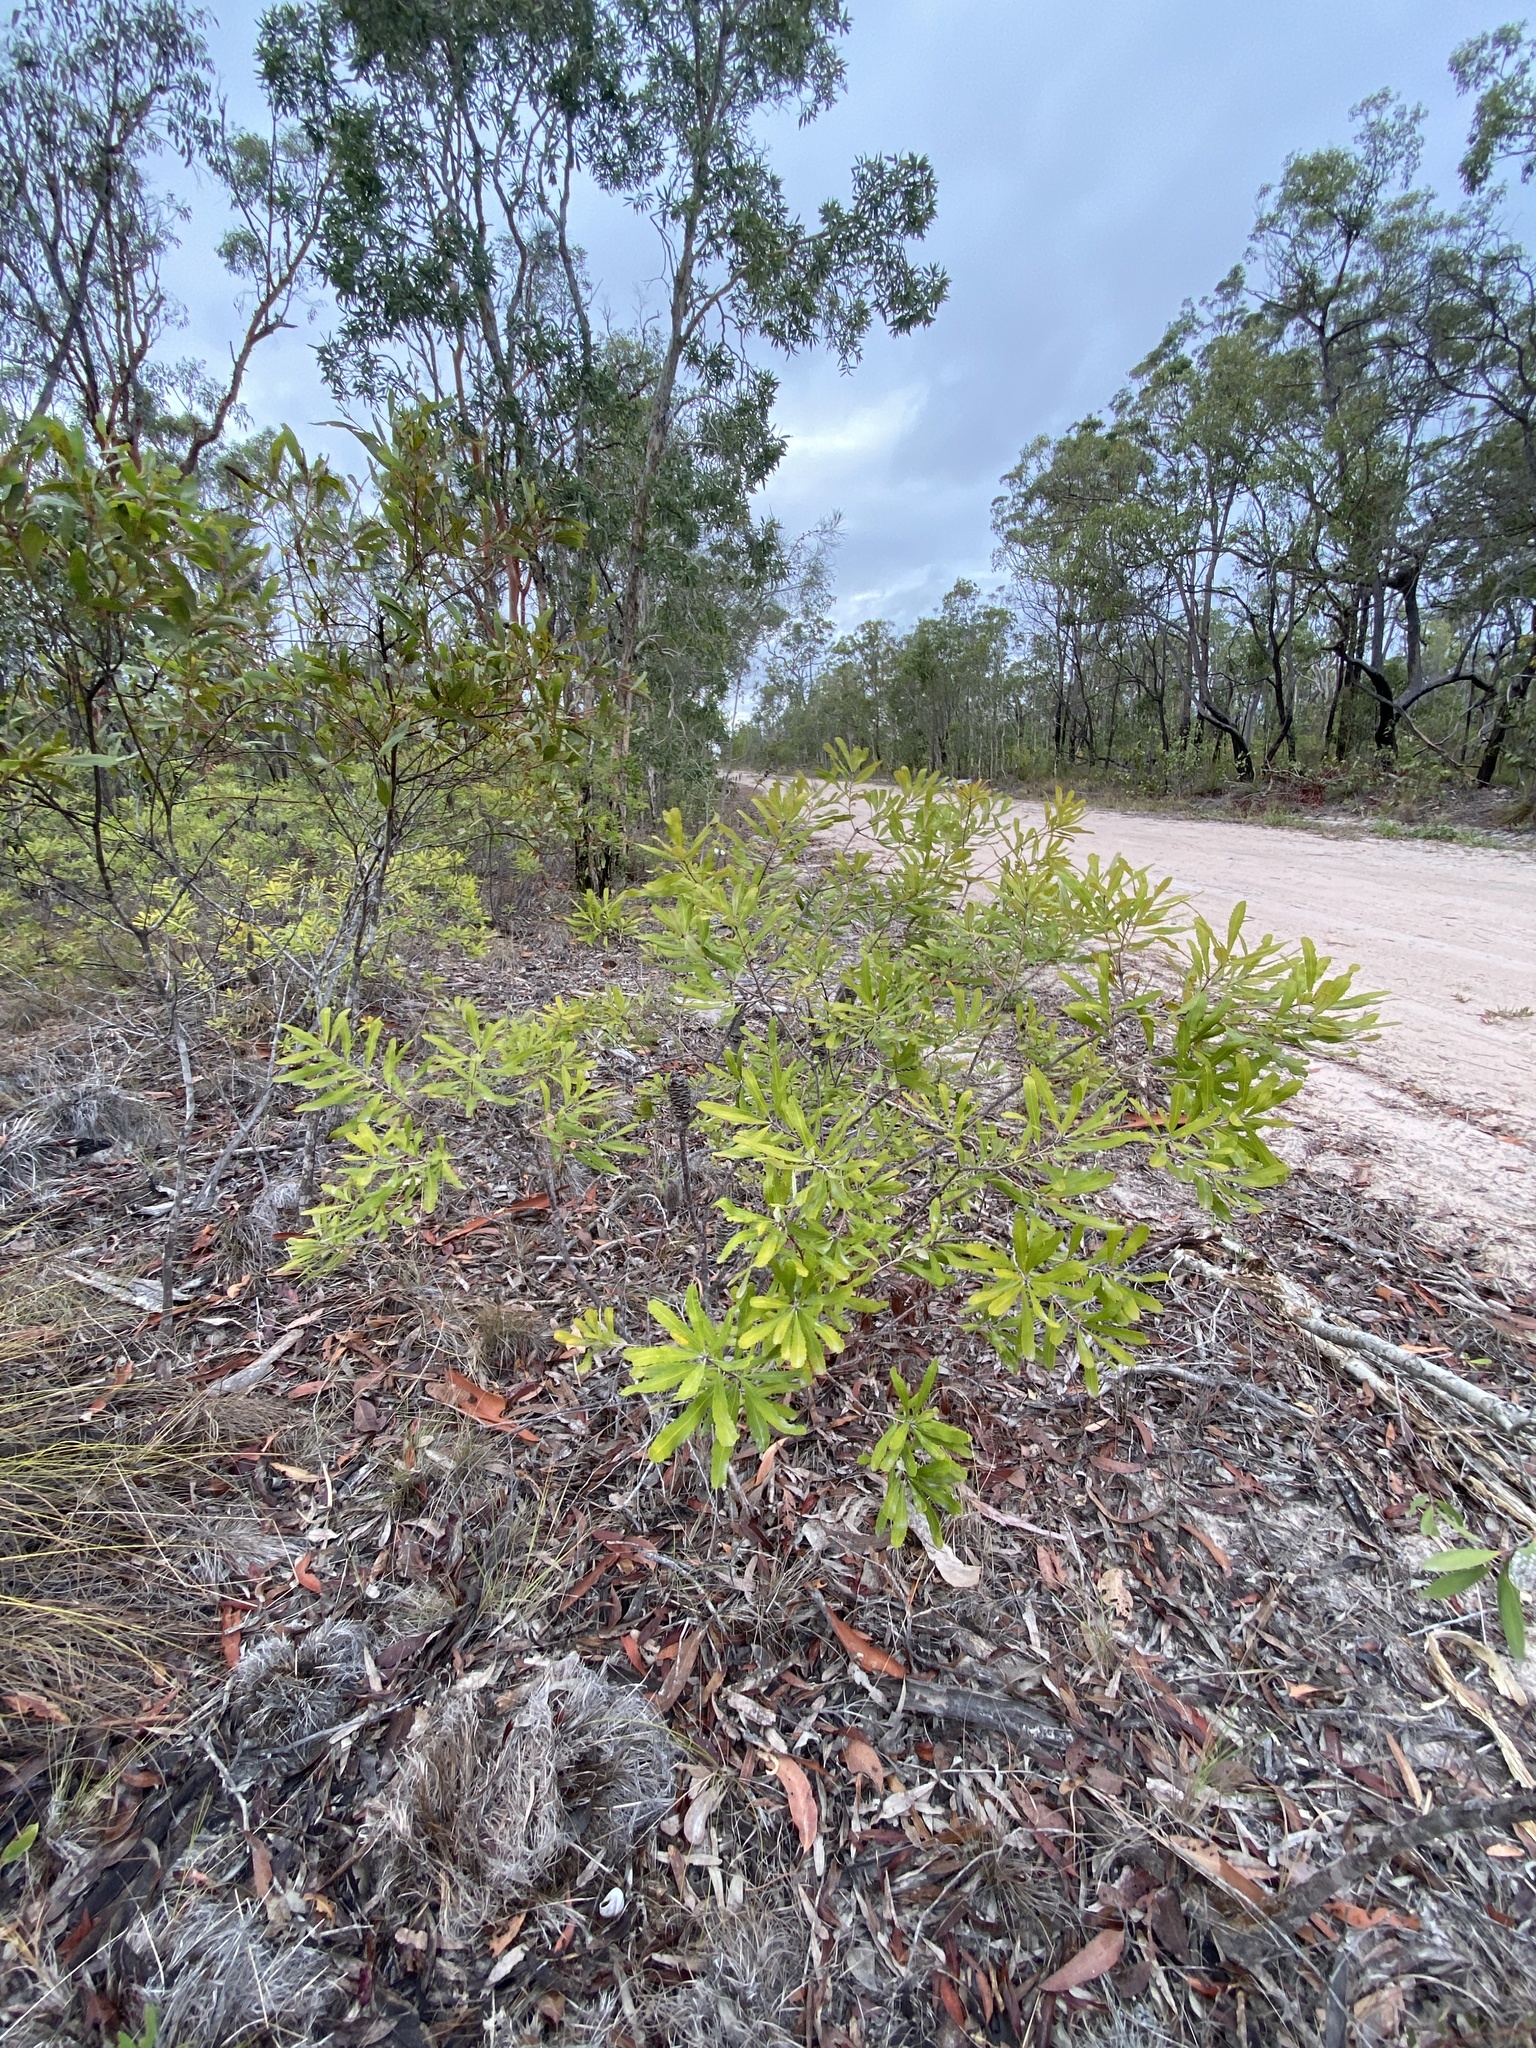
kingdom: Plantae
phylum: Tracheophyta
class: Magnoliopsida
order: Proteales
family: Proteaceae
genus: Banksia
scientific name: Banksia oblongifolia
